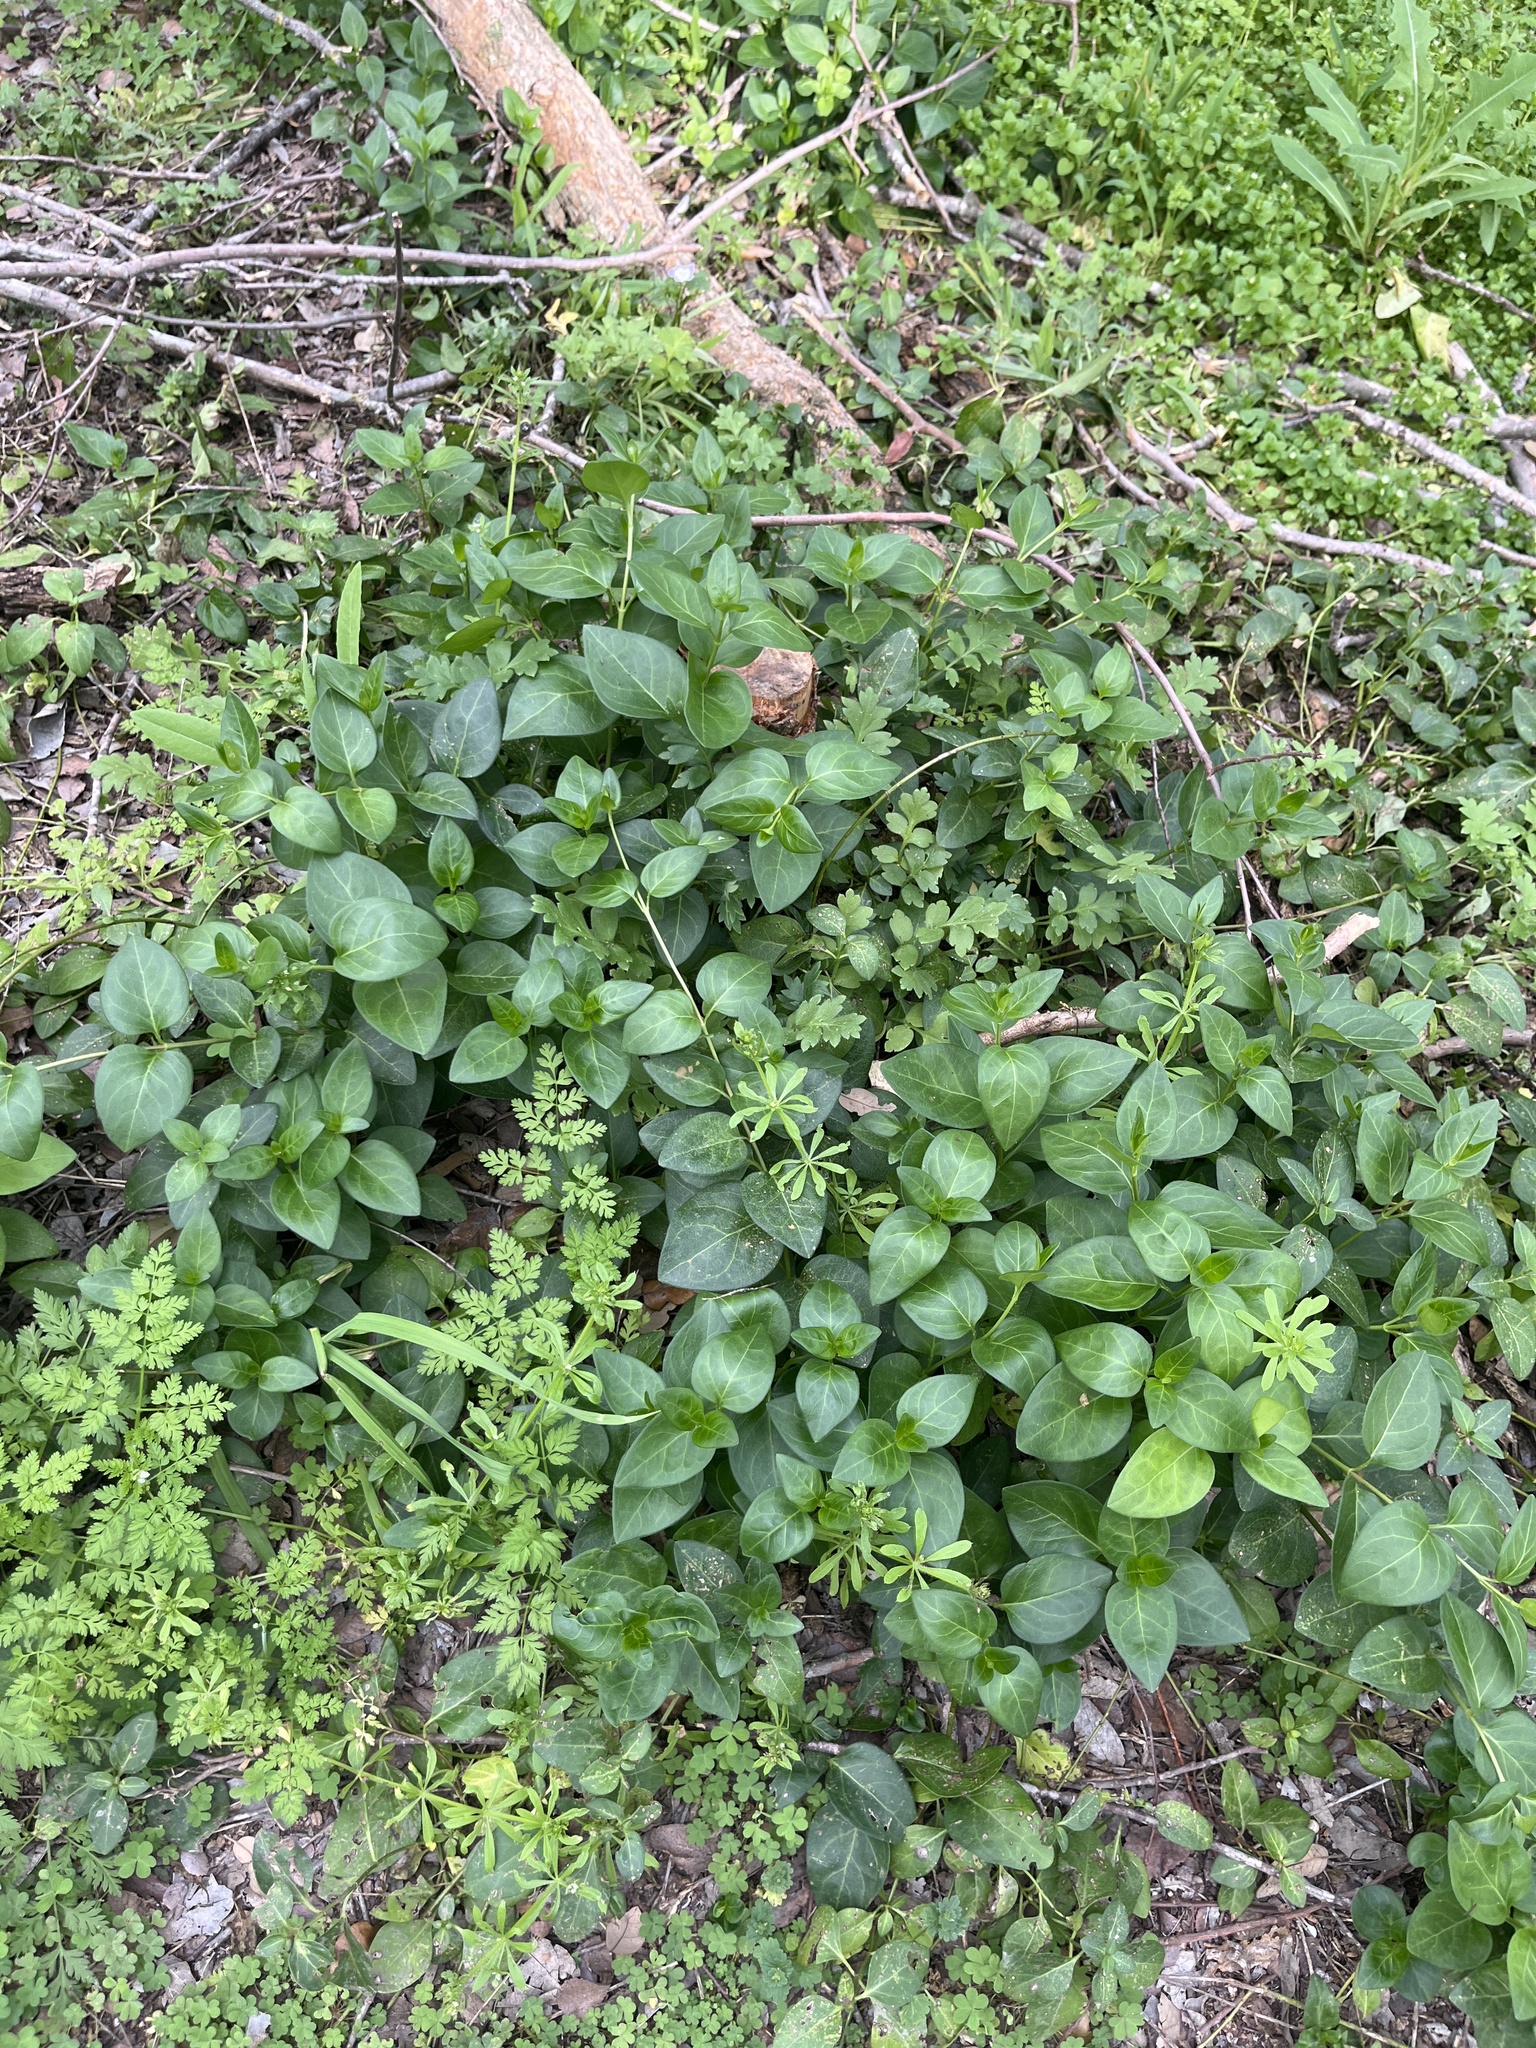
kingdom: Plantae
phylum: Tracheophyta
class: Magnoliopsida
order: Gentianales
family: Apocynaceae
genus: Vinca
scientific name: Vinca major
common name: Greater periwinkle
